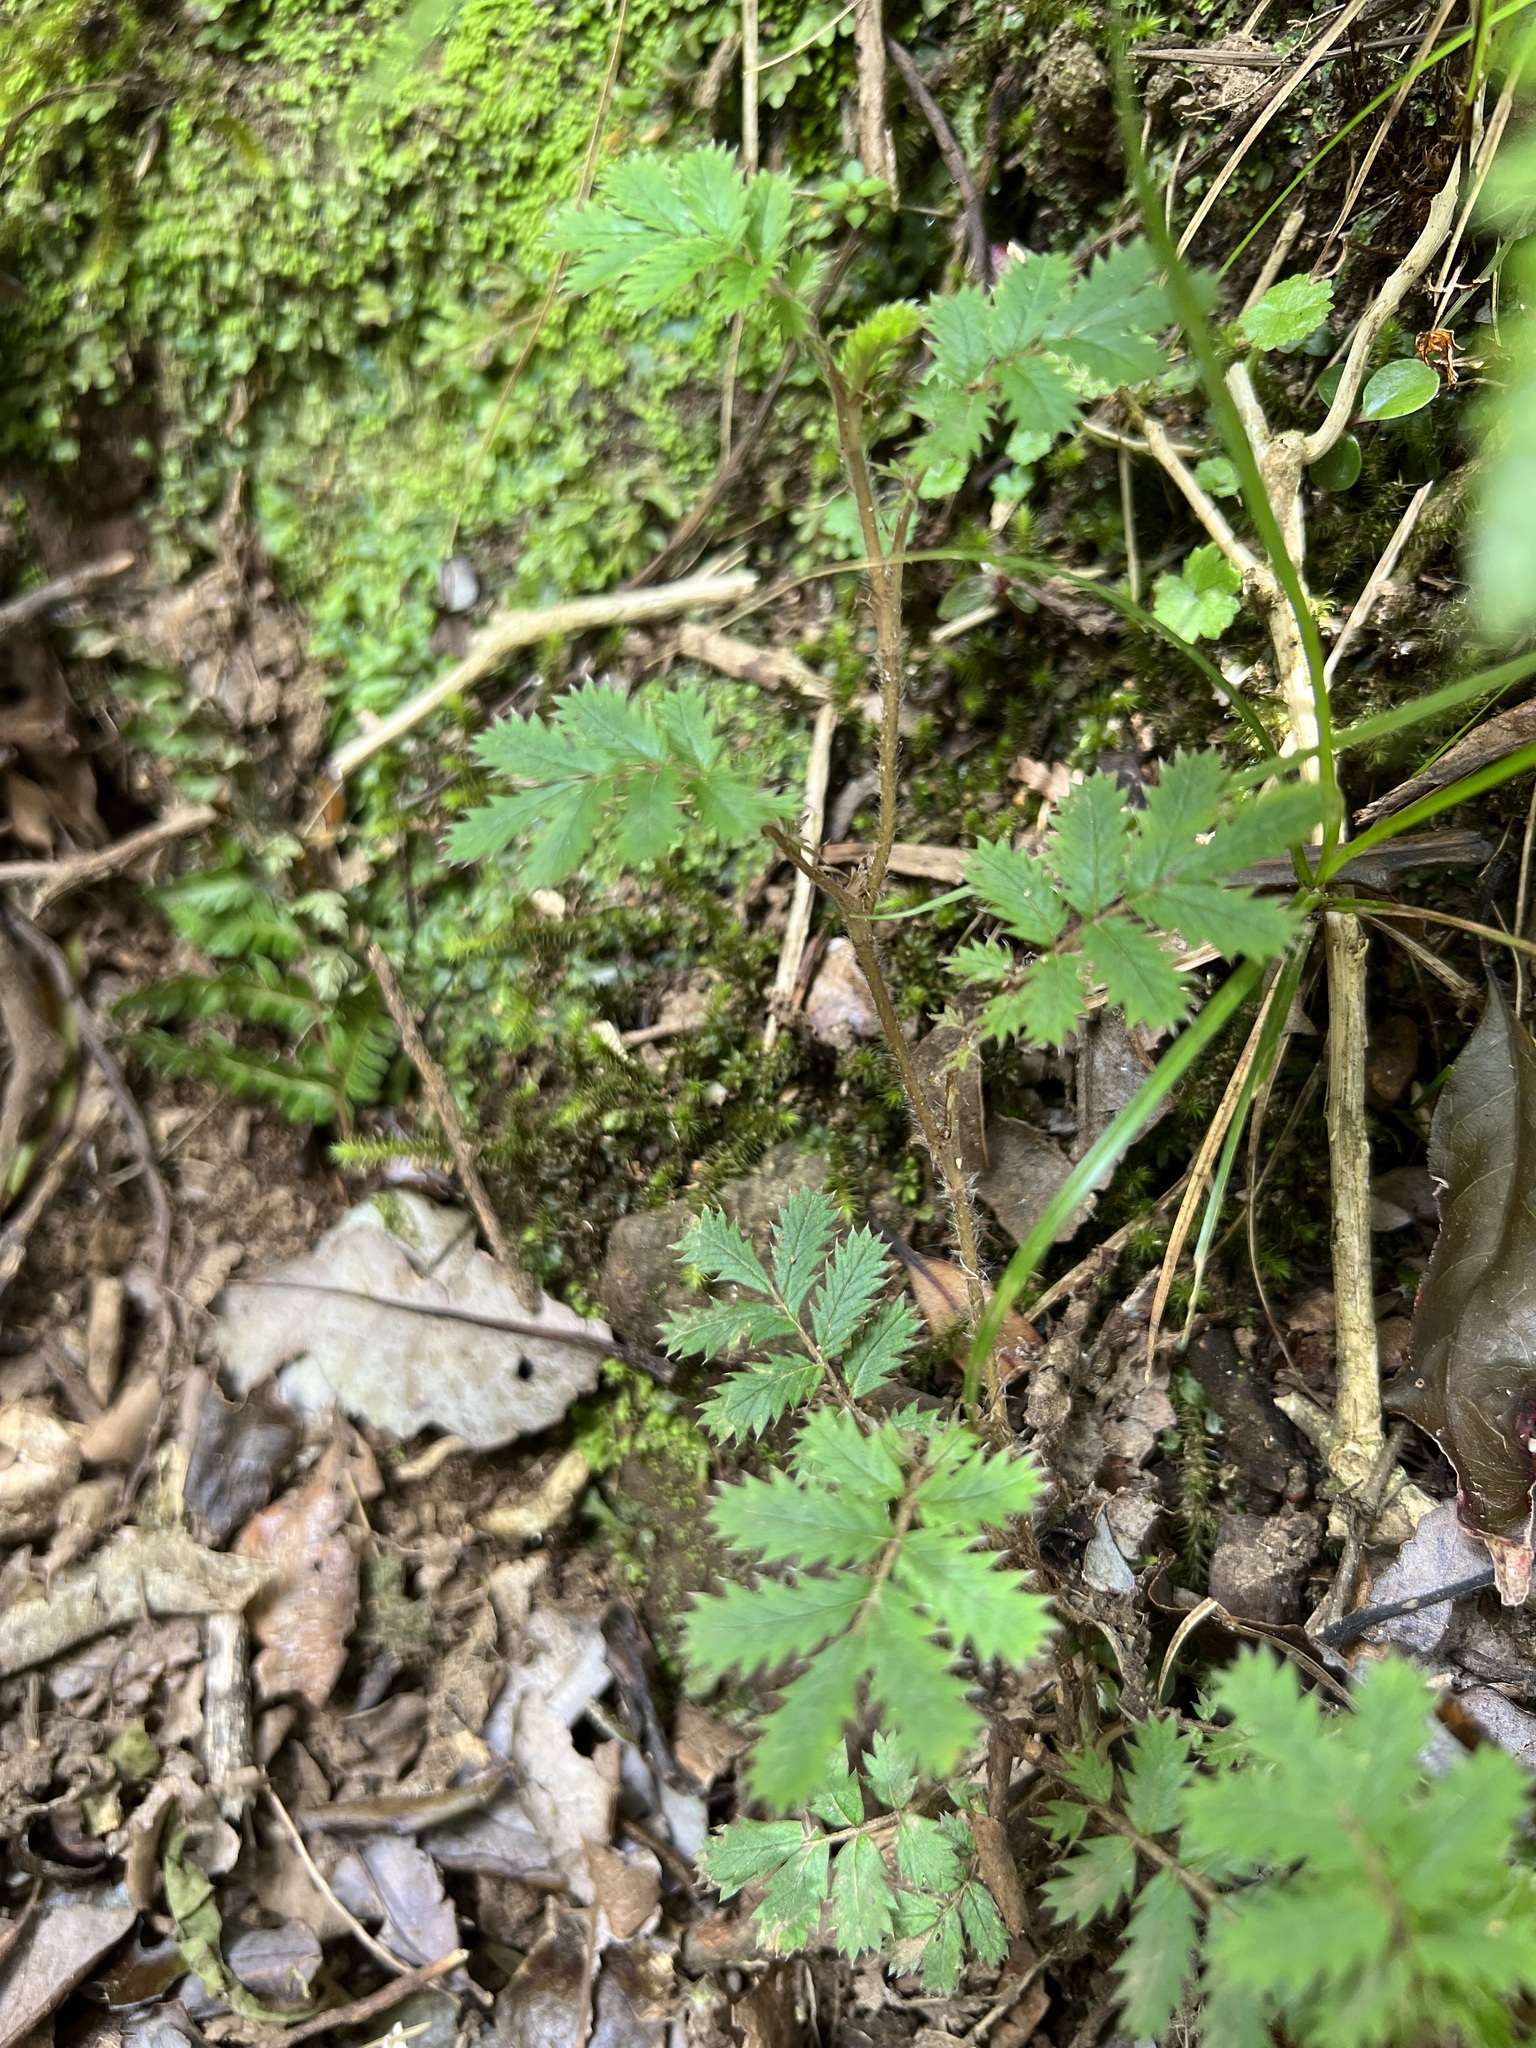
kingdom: Plantae
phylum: Tracheophyta
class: Magnoliopsida
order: Rosales
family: Rosaceae
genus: Acaena
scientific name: Acaena anserinifolia
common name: Bronze pirri-pirri-bur
